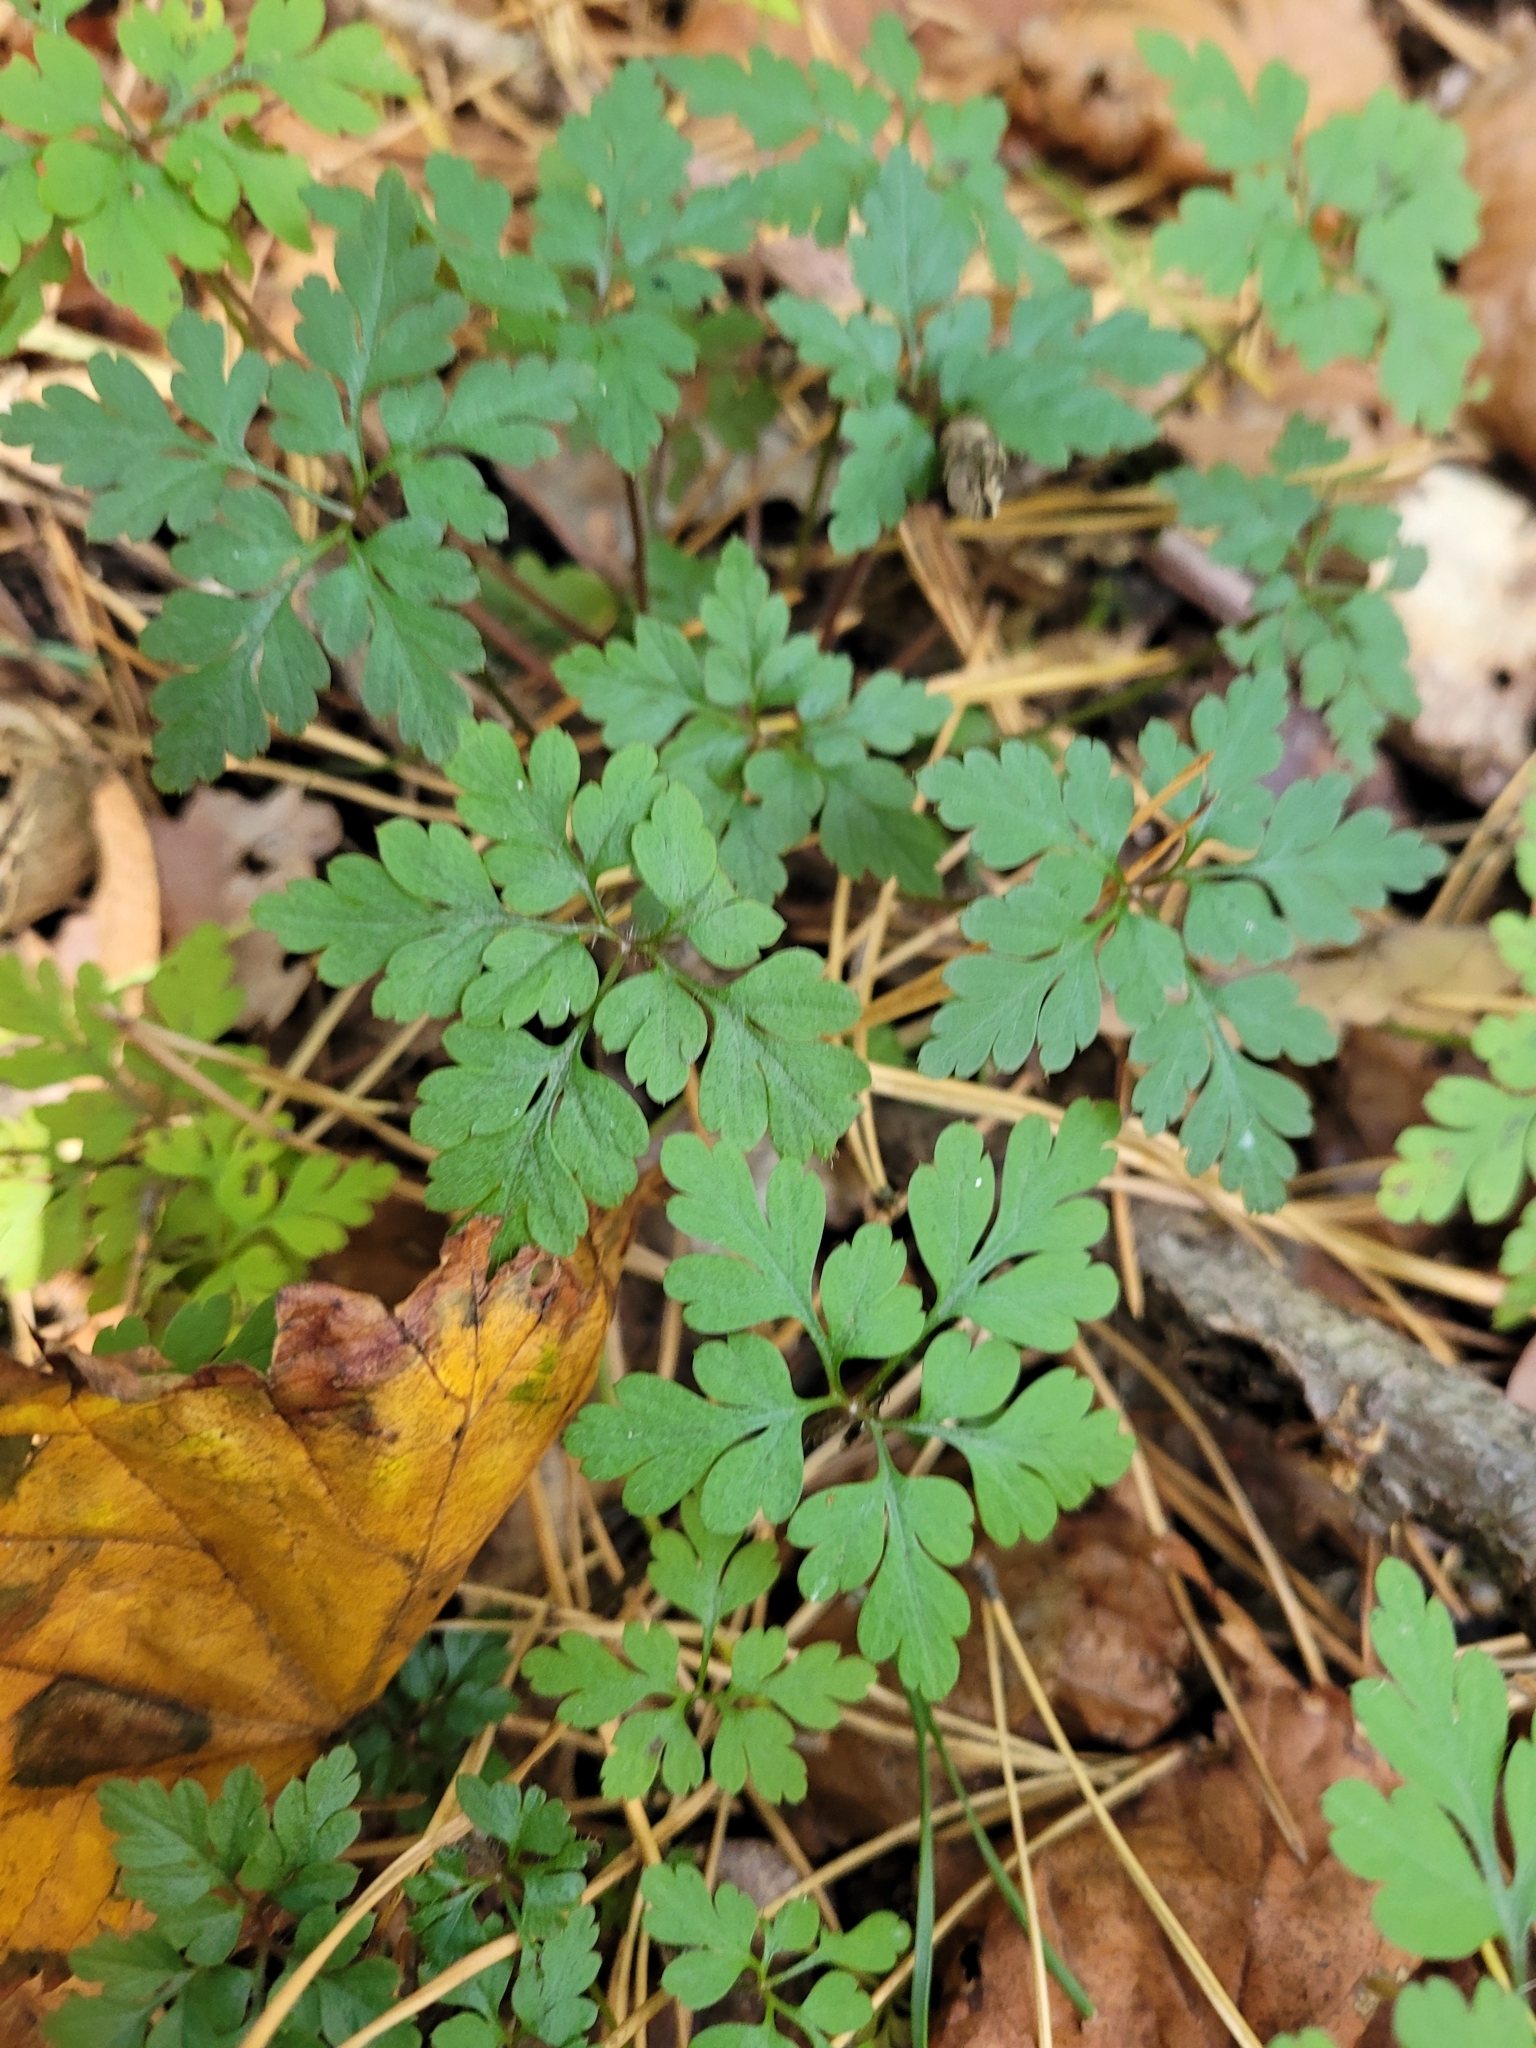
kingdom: Plantae
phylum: Tracheophyta
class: Magnoliopsida
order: Geraniales
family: Geraniaceae
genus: Geranium
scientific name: Geranium robertianum
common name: Herb-robert
